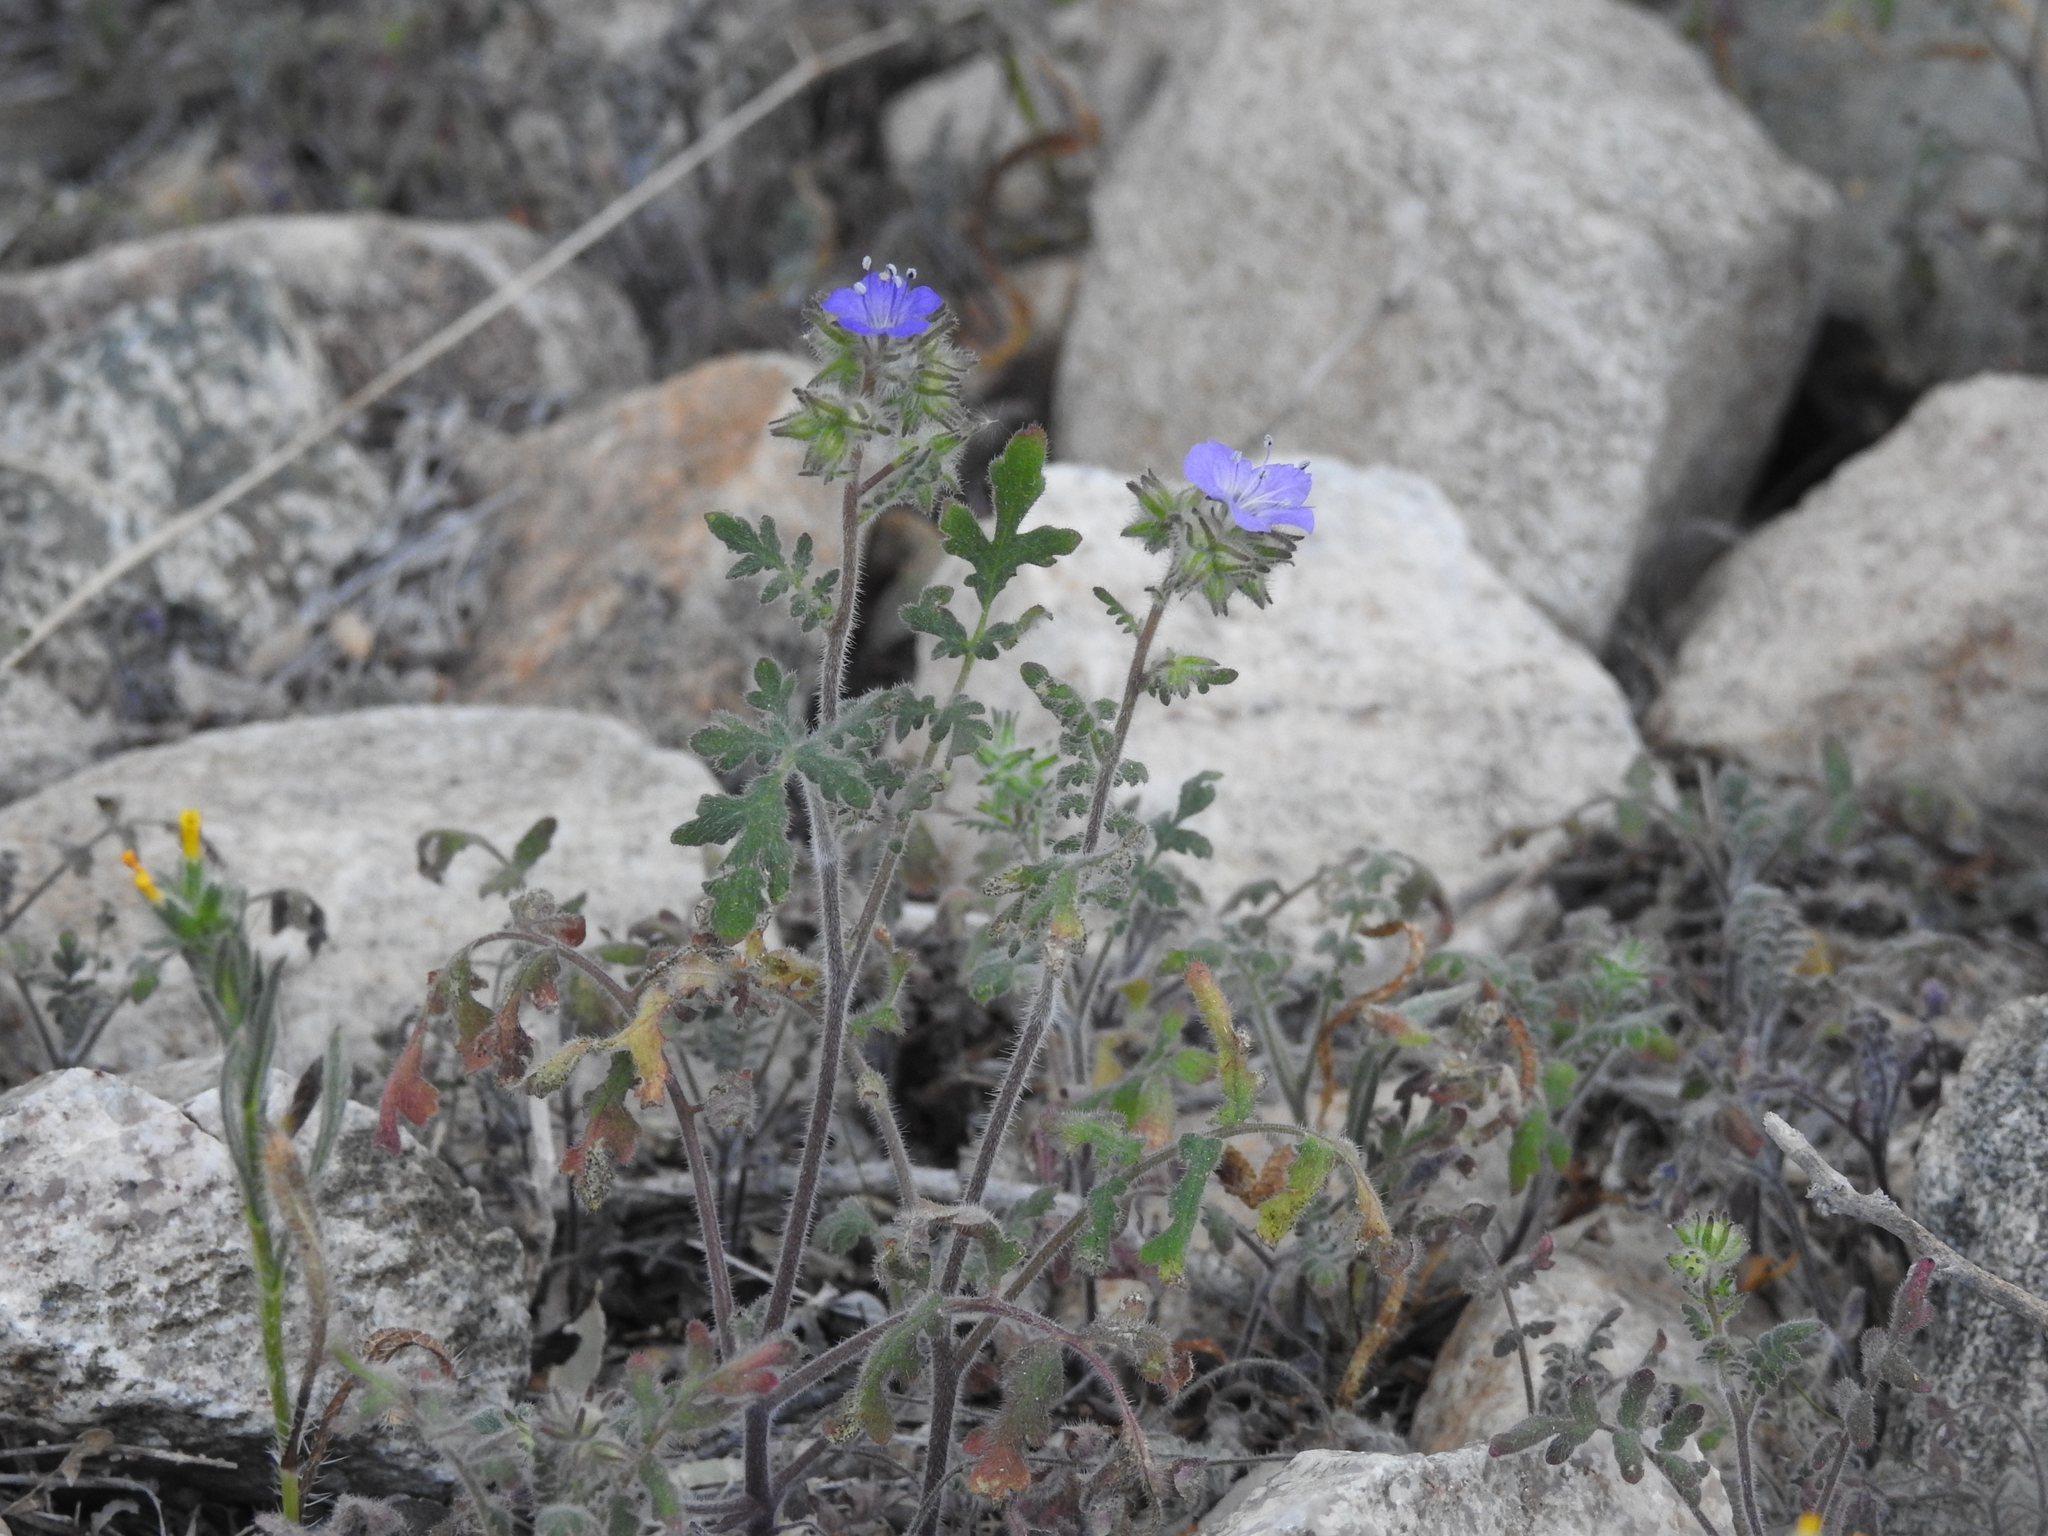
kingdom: Plantae
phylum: Tracheophyta
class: Magnoliopsida
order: Boraginales
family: Hydrophyllaceae
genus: Phacelia
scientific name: Phacelia distans
